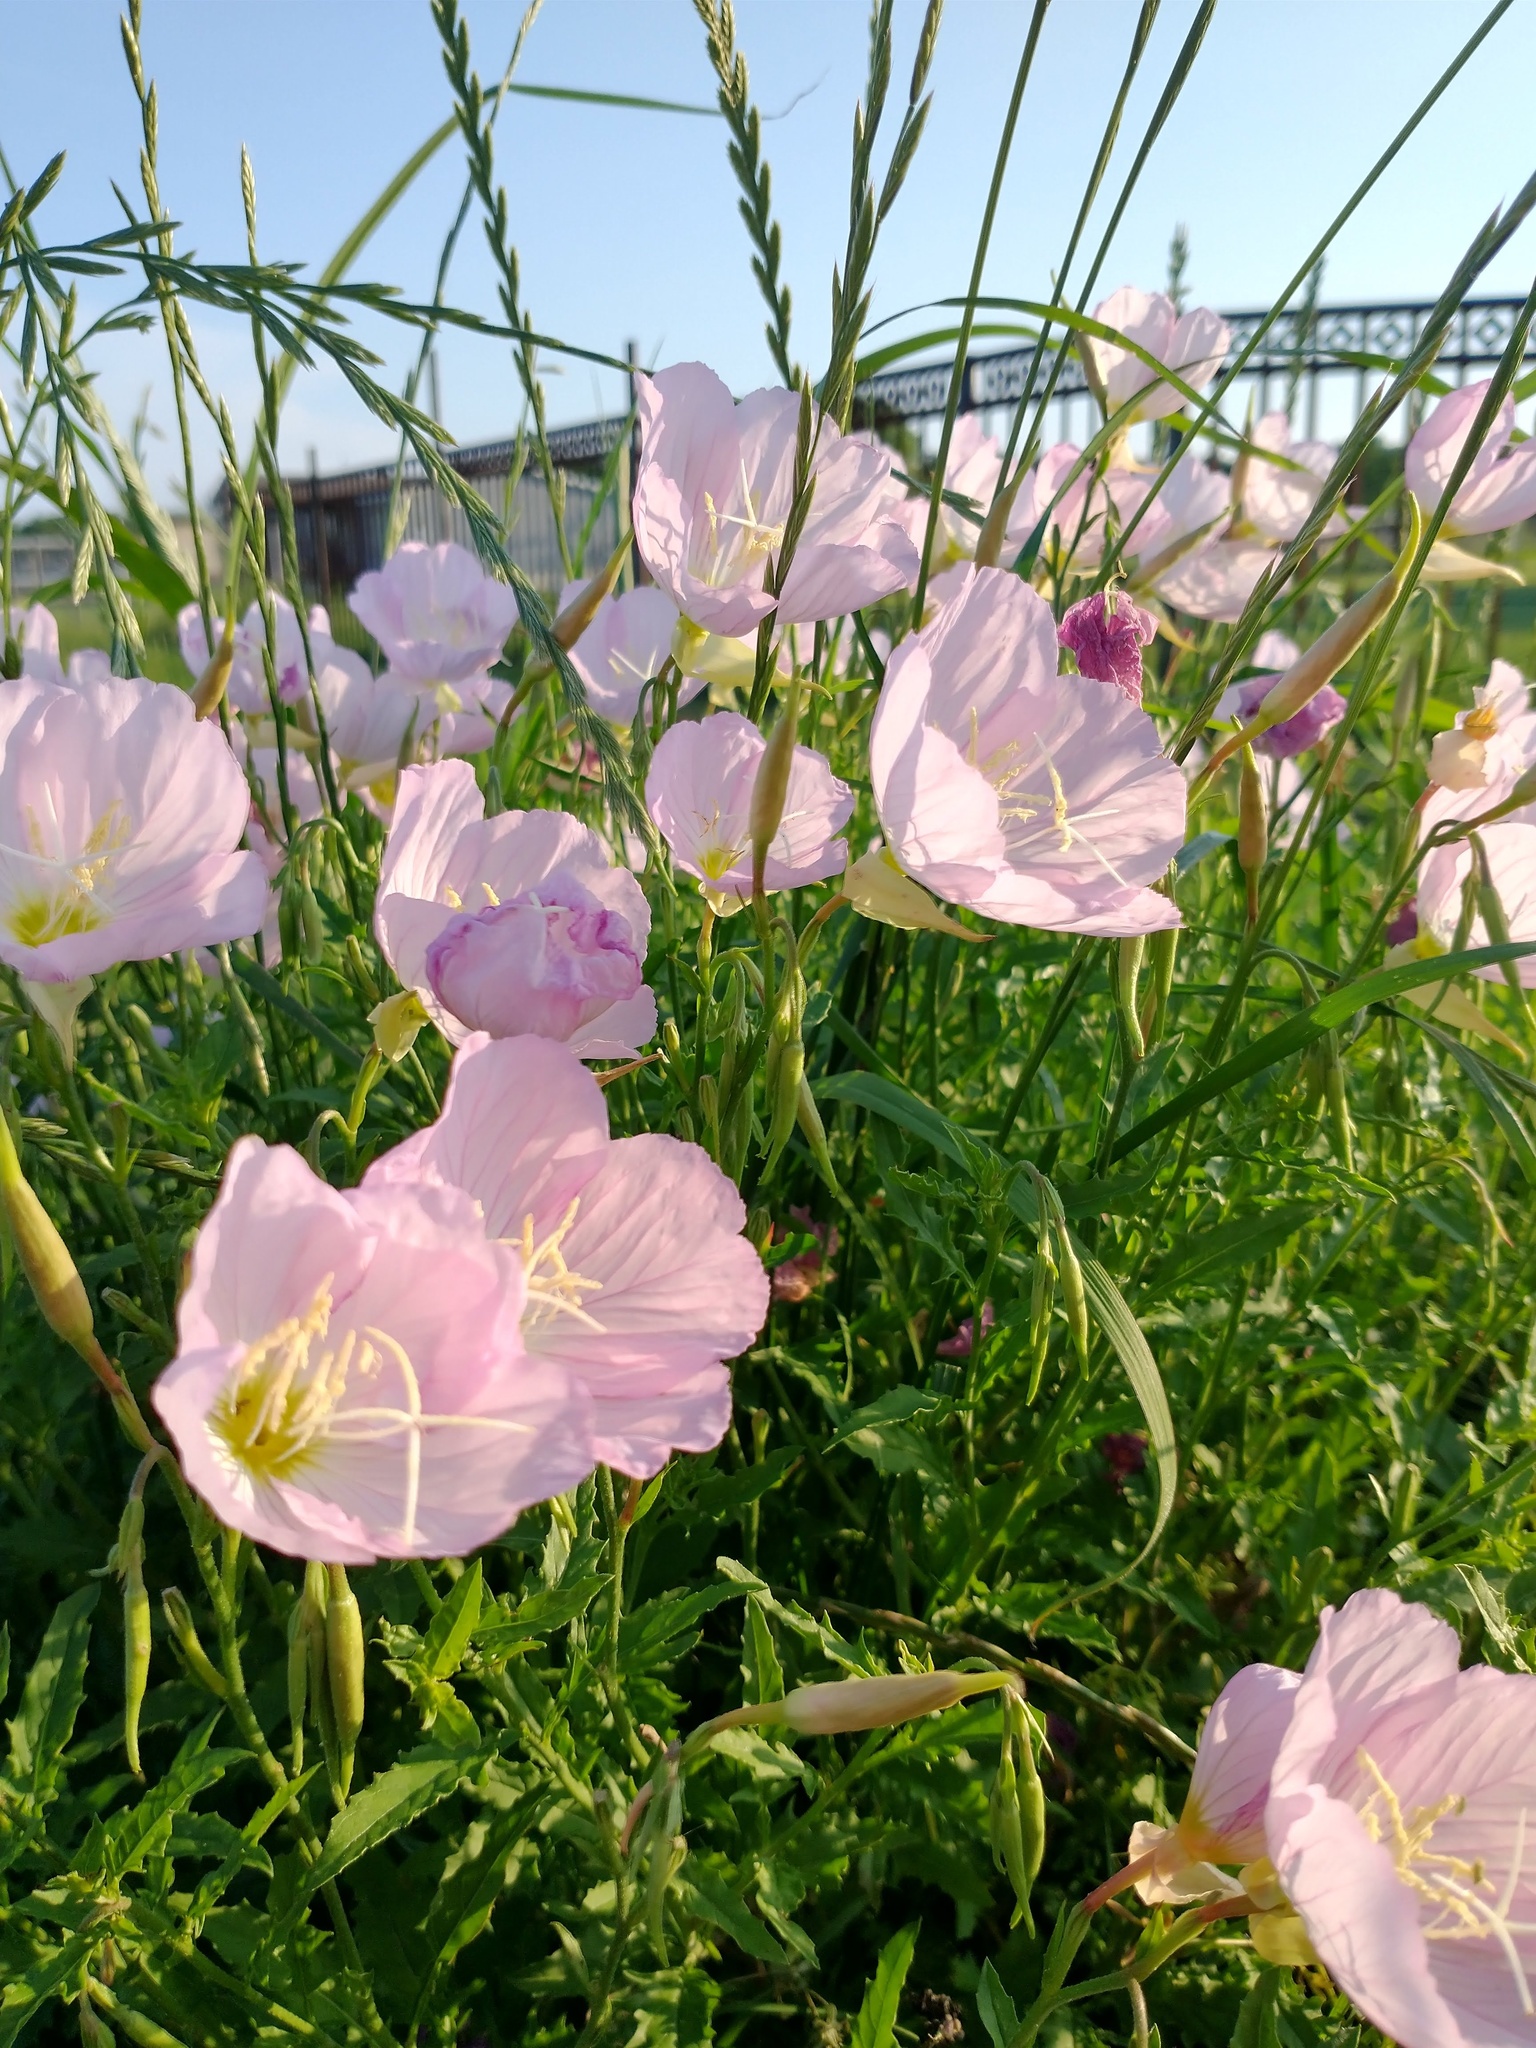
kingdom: Plantae
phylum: Tracheophyta
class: Magnoliopsida
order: Myrtales
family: Onagraceae
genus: Oenothera
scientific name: Oenothera speciosa
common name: White evening-primrose
